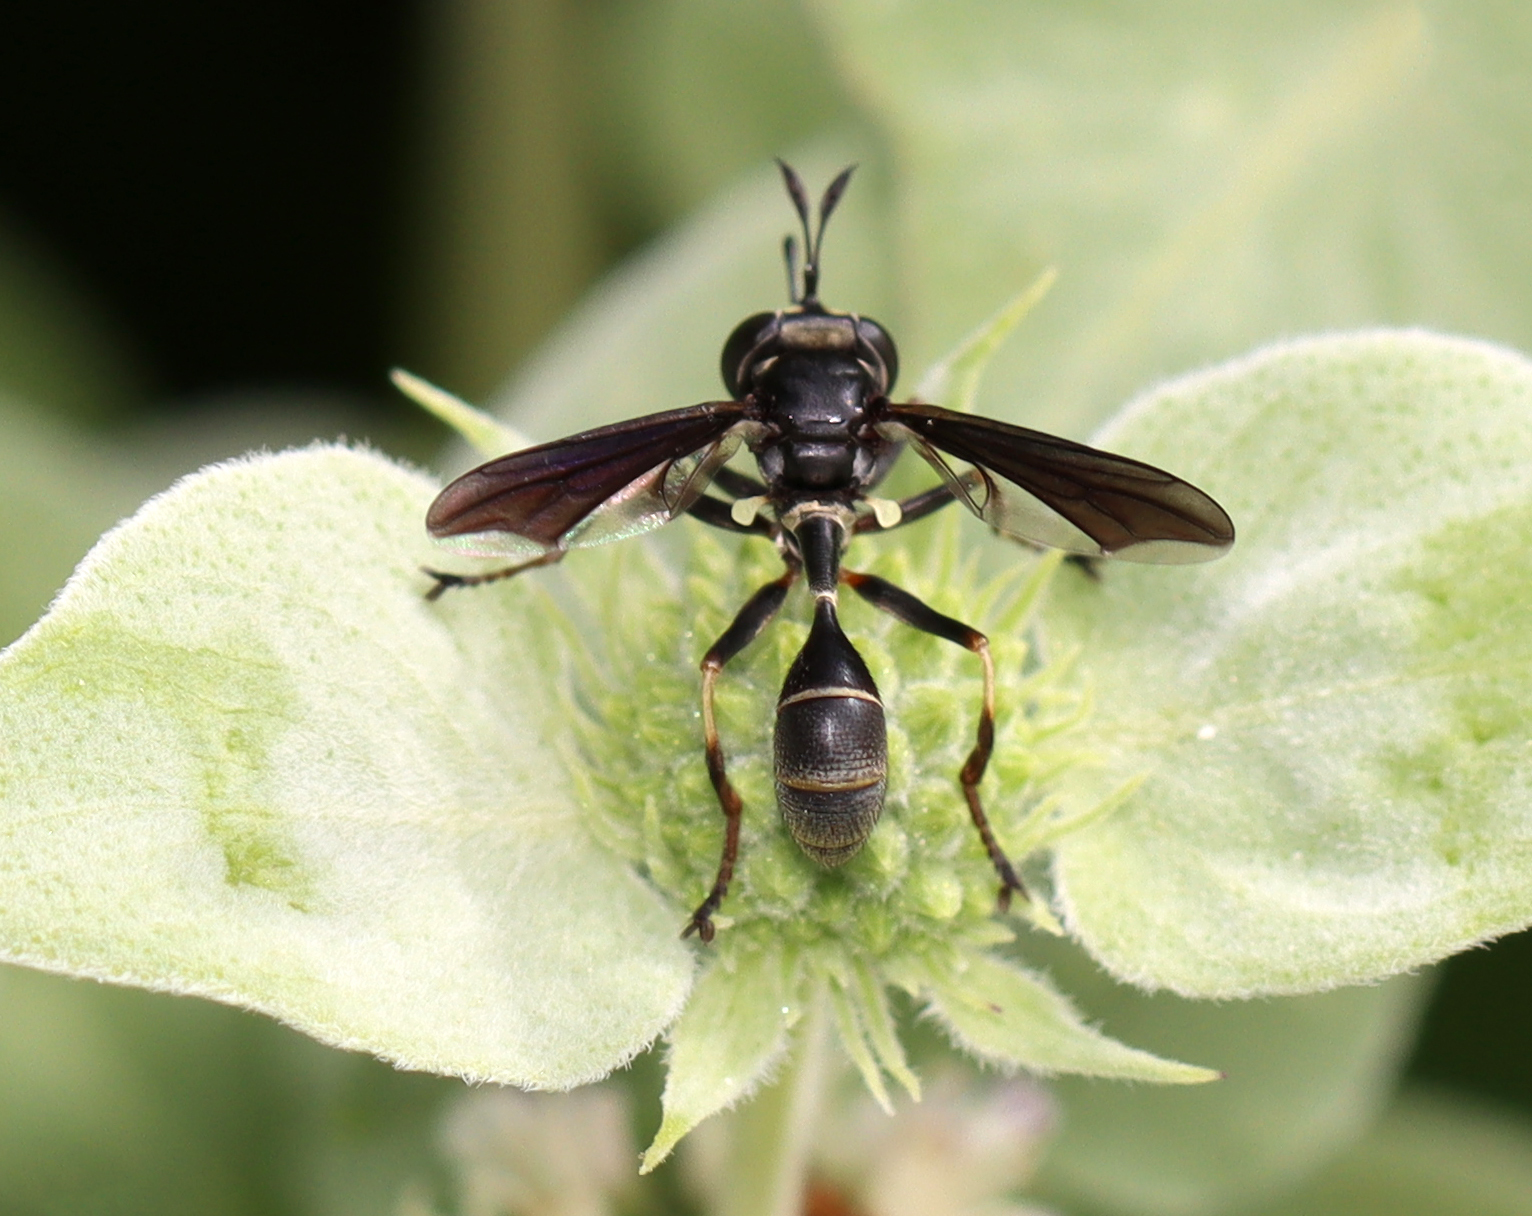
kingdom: Animalia
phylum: Arthropoda
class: Insecta
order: Diptera
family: Conopidae
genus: Physocephala
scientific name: Physocephala tibialis
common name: Common eastern physocephala
